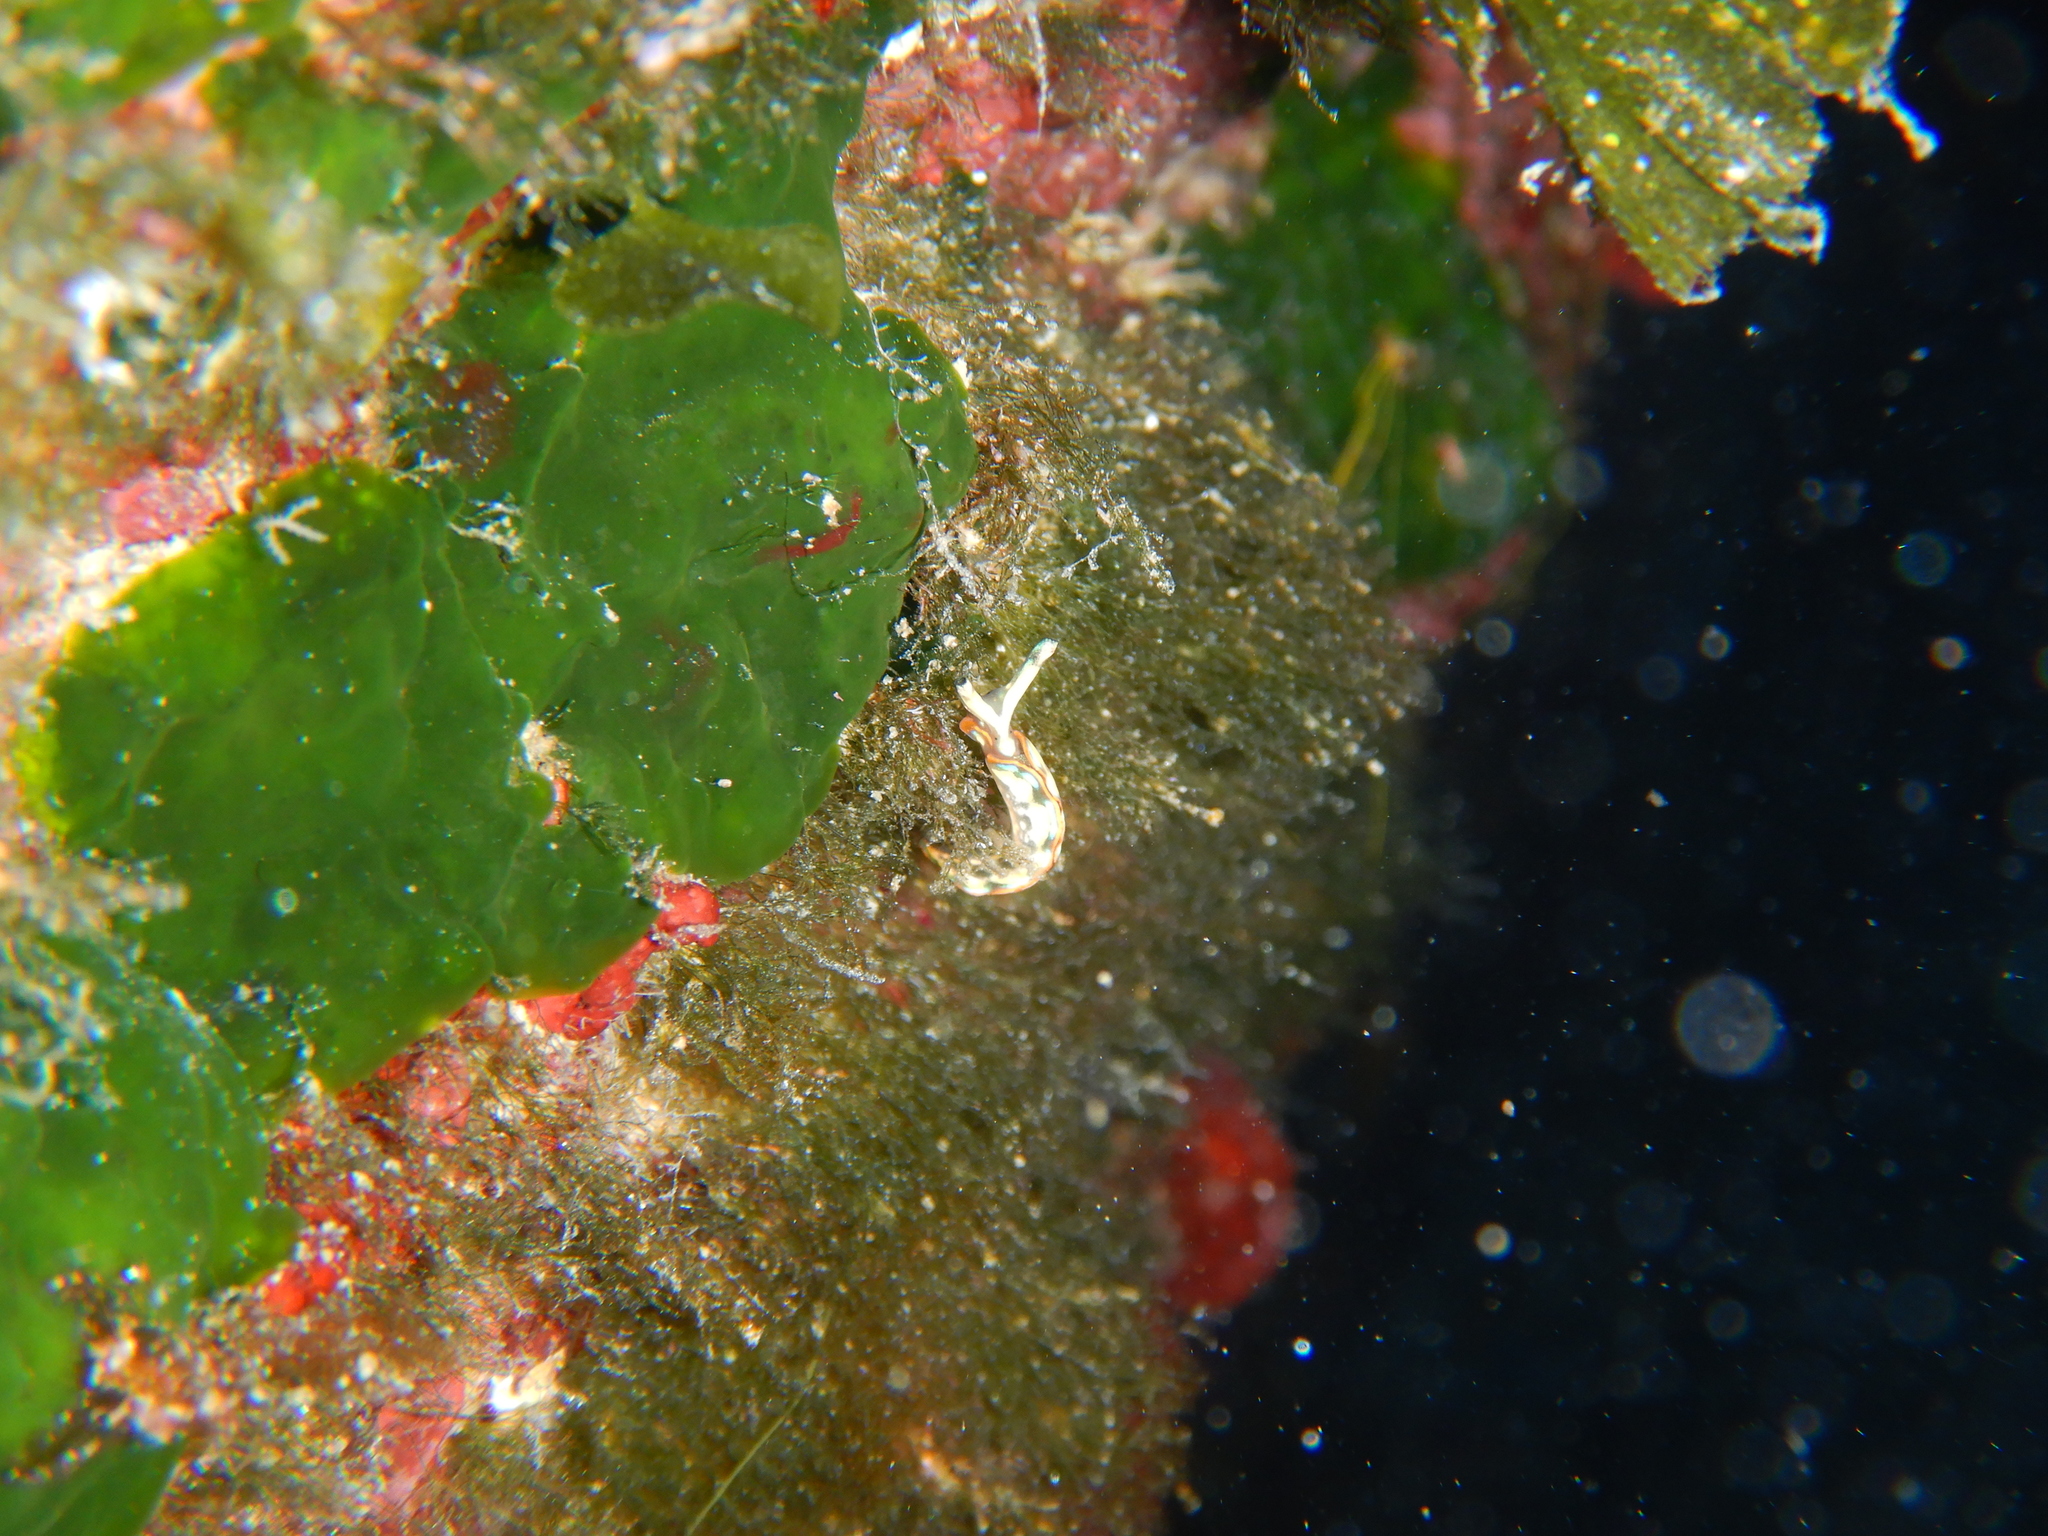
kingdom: Animalia
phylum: Mollusca
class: Gastropoda
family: Plakobranchidae
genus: Thuridilla
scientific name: Thuridilla hopei
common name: Splendid elysia
